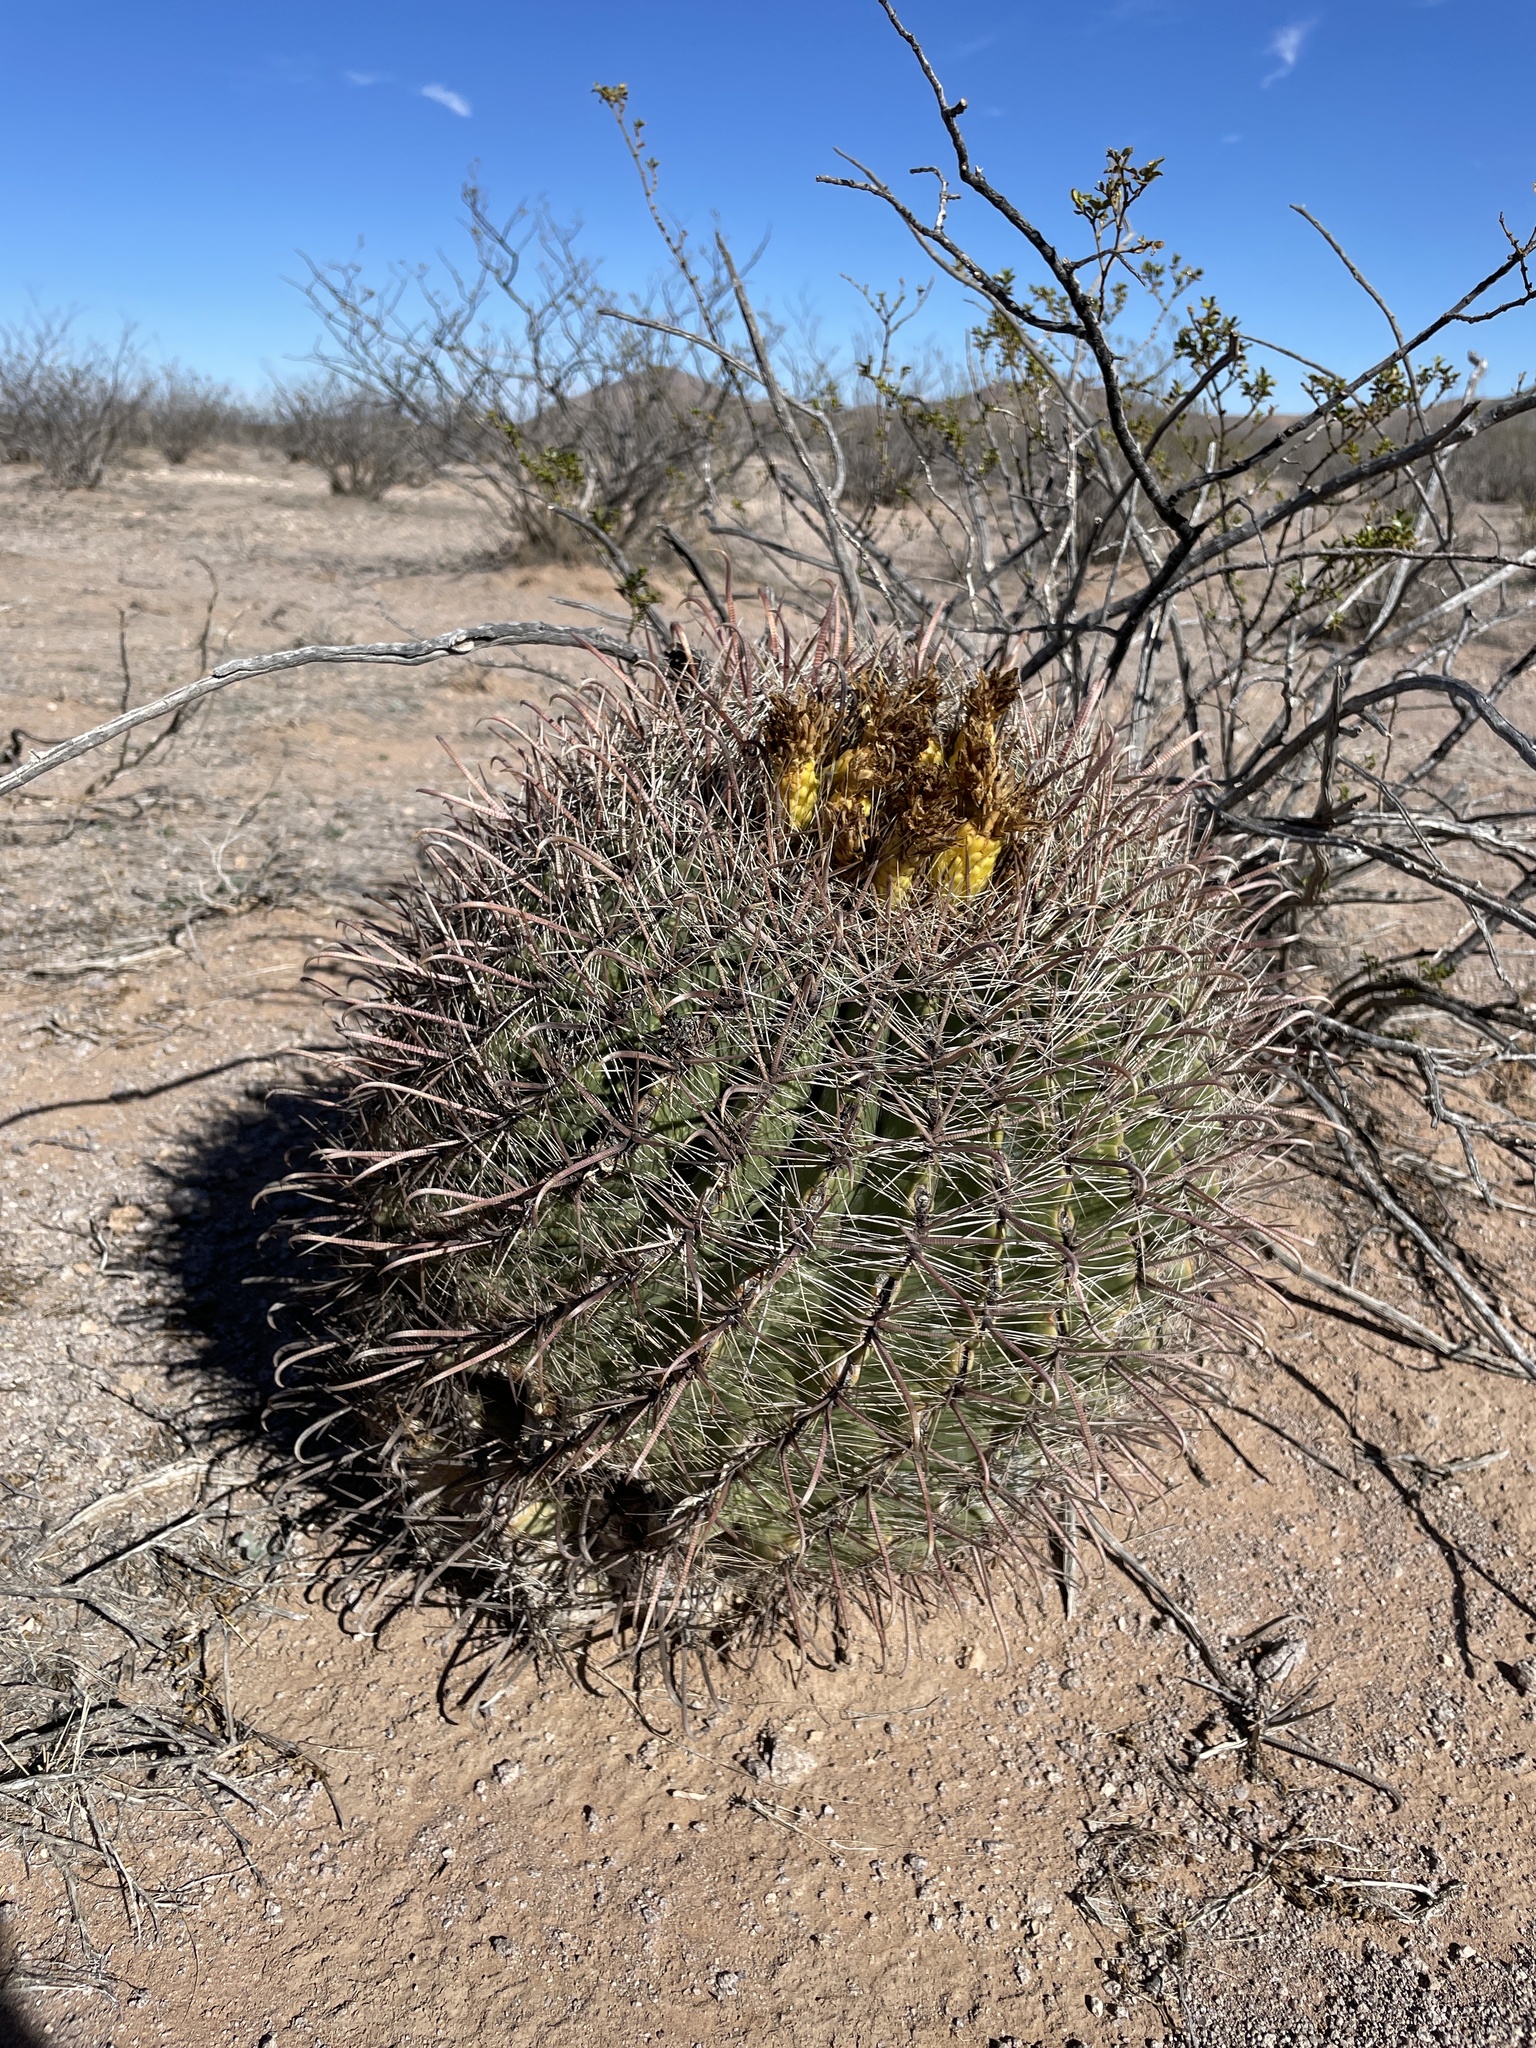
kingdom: Plantae
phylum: Tracheophyta
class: Magnoliopsida
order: Caryophyllales
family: Cactaceae
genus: Ferocactus
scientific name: Ferocactus wislizeni
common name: Candy barrel cactus
